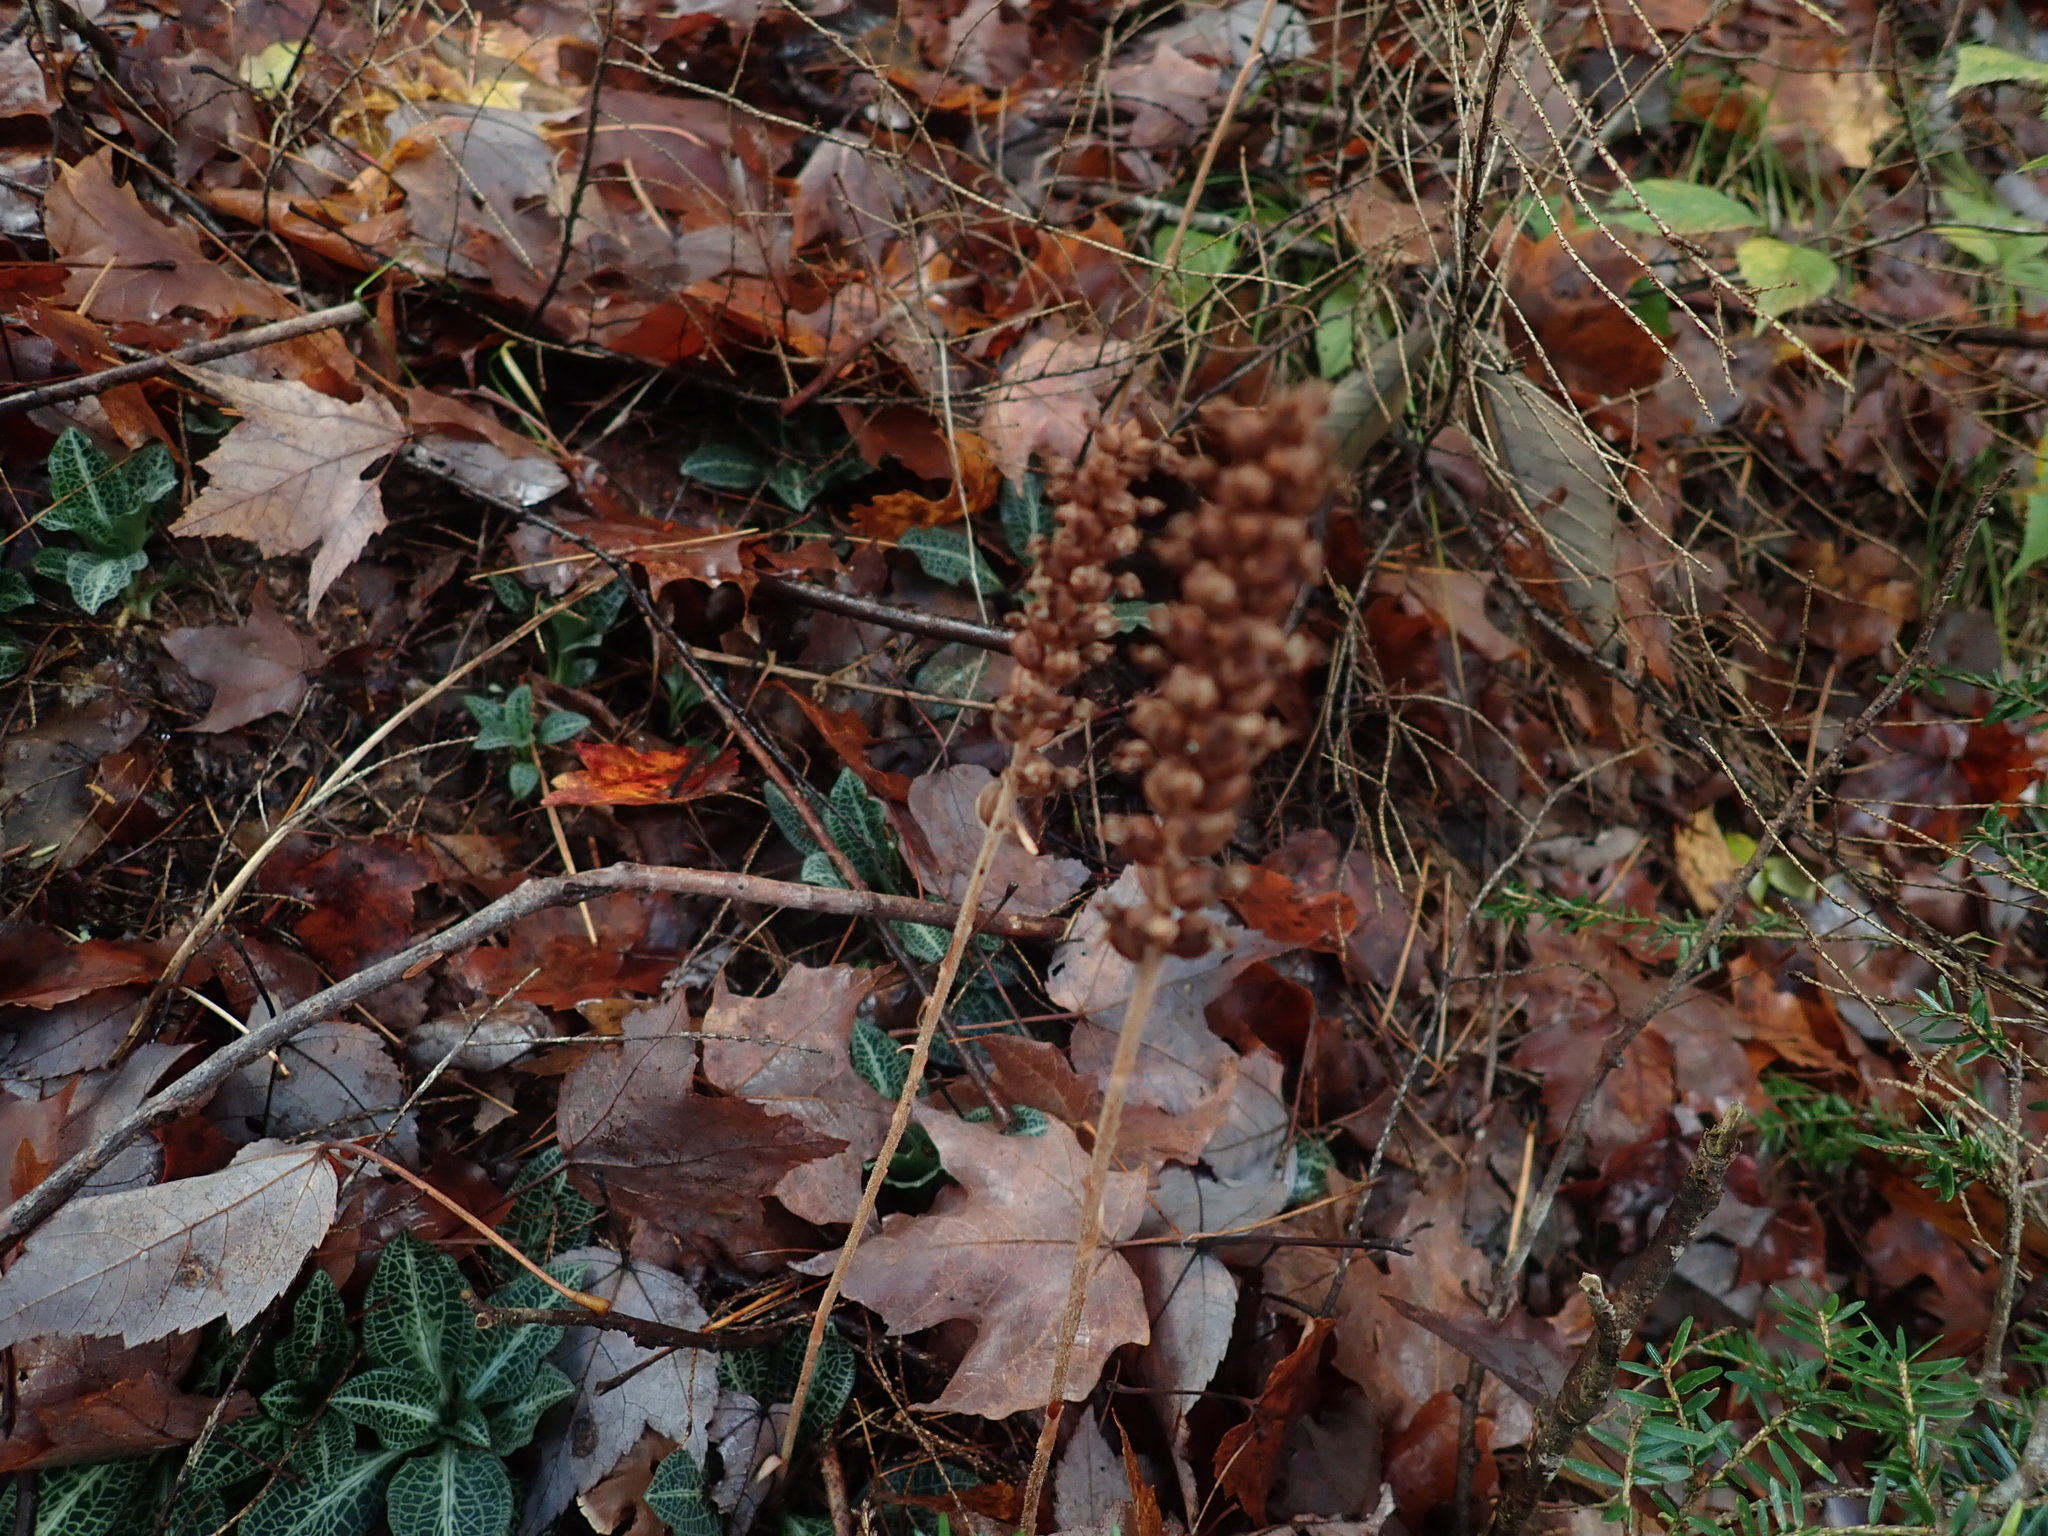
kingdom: Plantae
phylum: Tracheophyta
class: Liliopsida
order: Asparagales
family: Orchidaceae
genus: Goodyera
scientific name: Goodyera pubescens
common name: Downy rattlesnake-plantain
